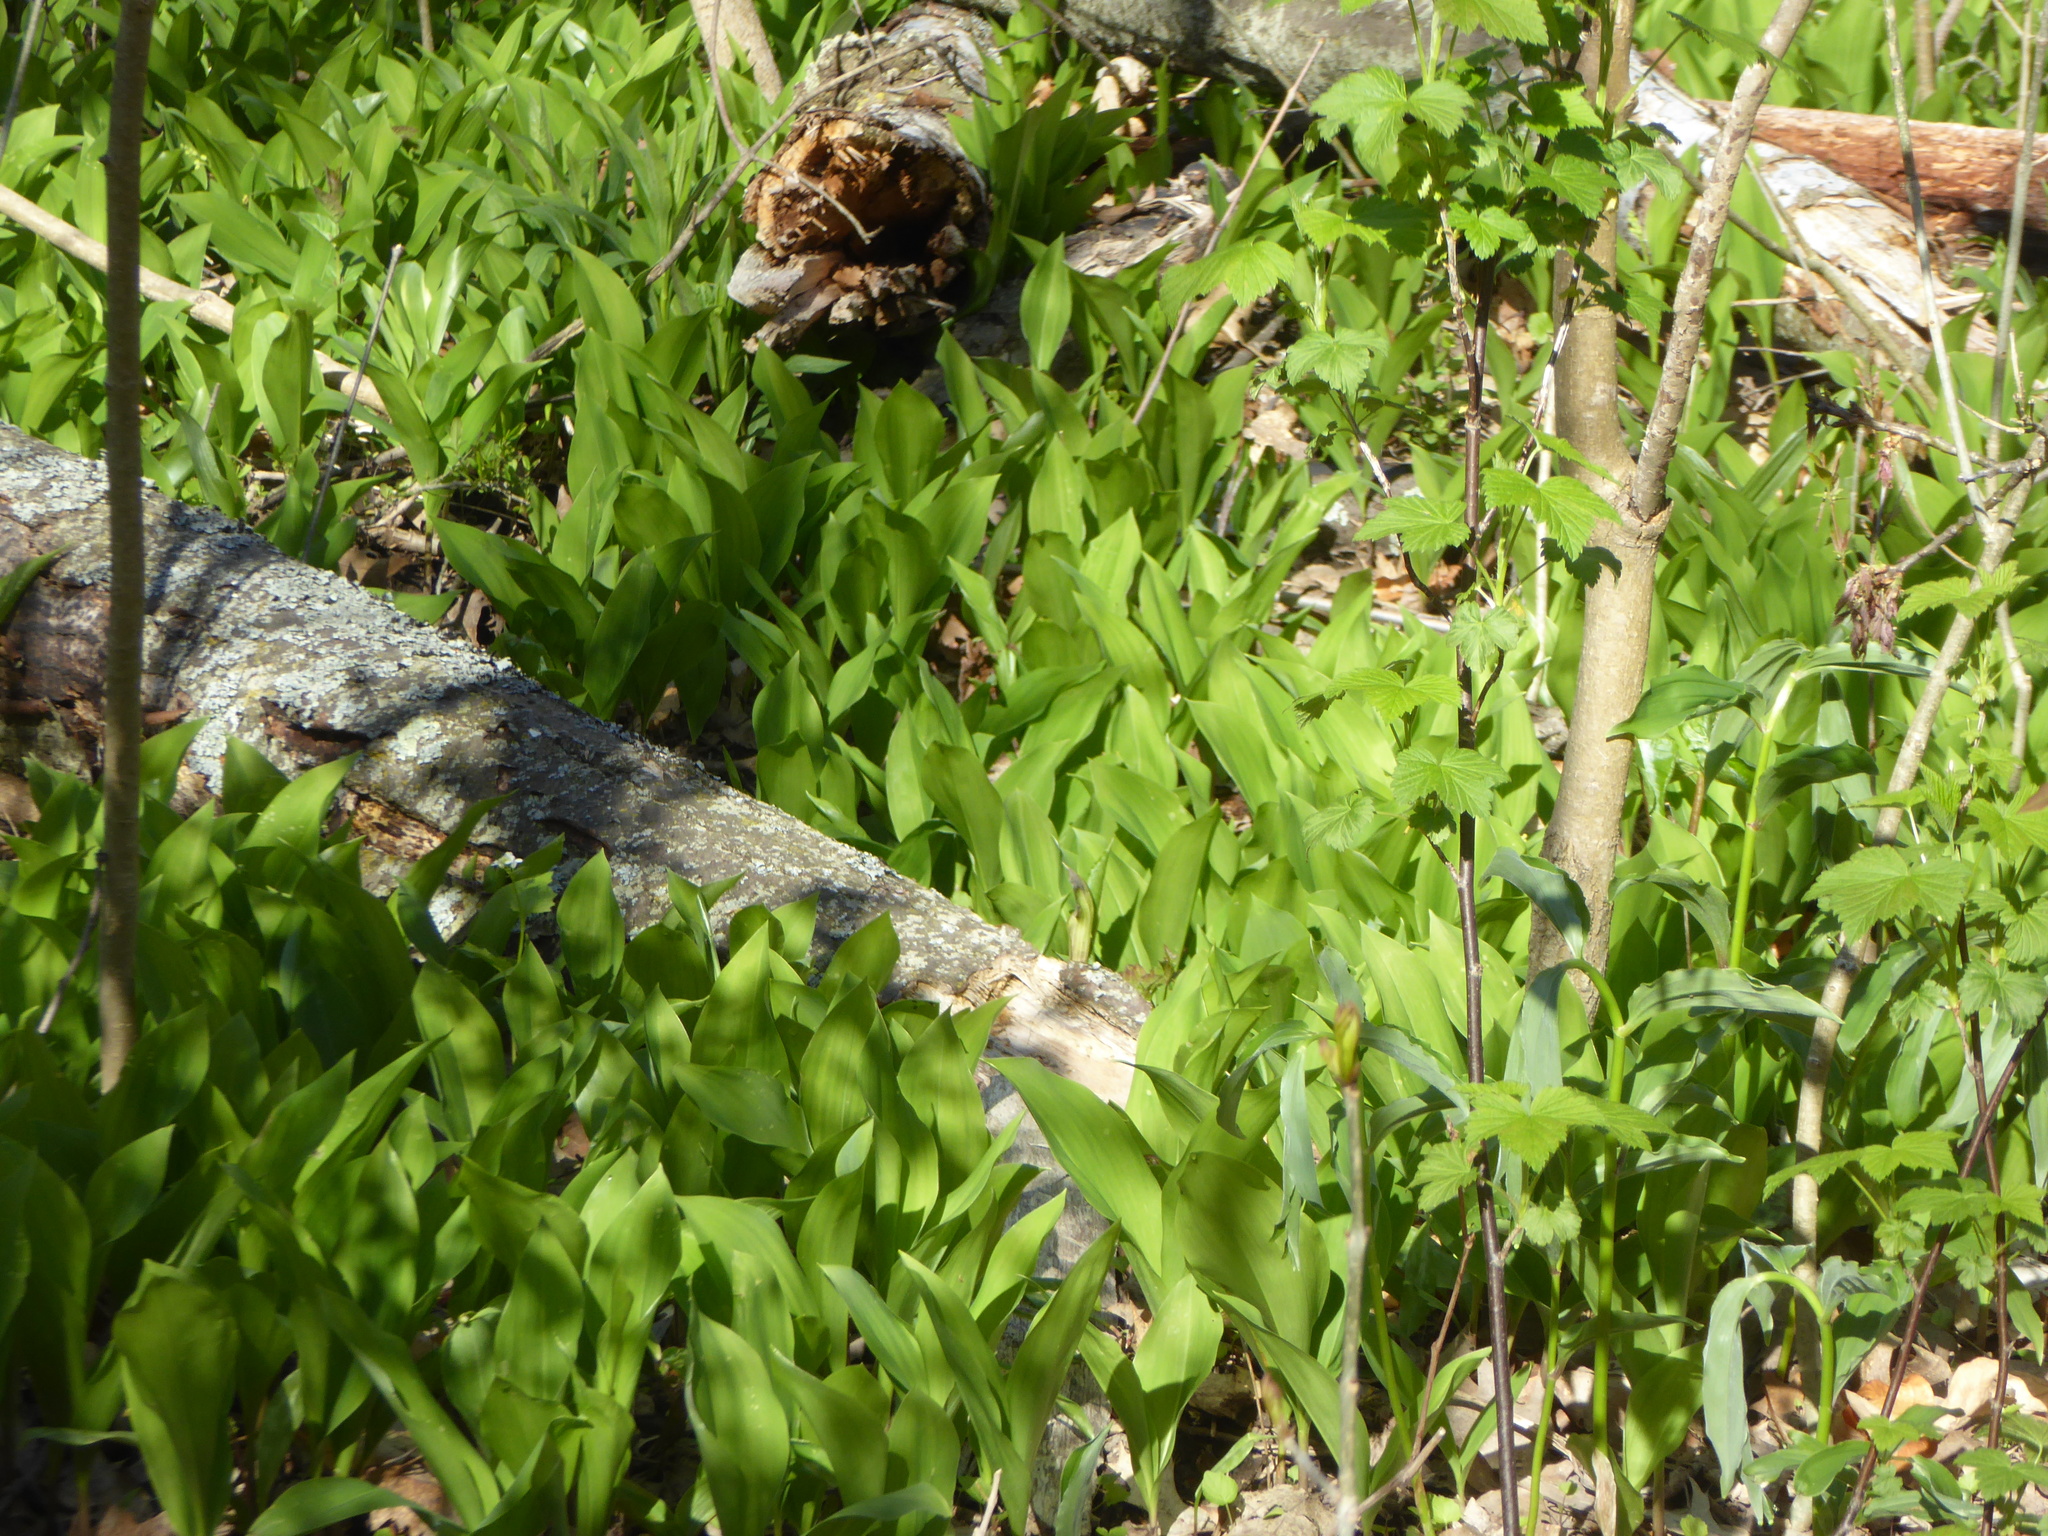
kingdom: Plantae
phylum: Tracheophyta
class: Liliopsida
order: Asparagales
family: Asparagaceae
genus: Convallaria
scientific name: Convallaria majalis
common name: Lily-of-the-valley
